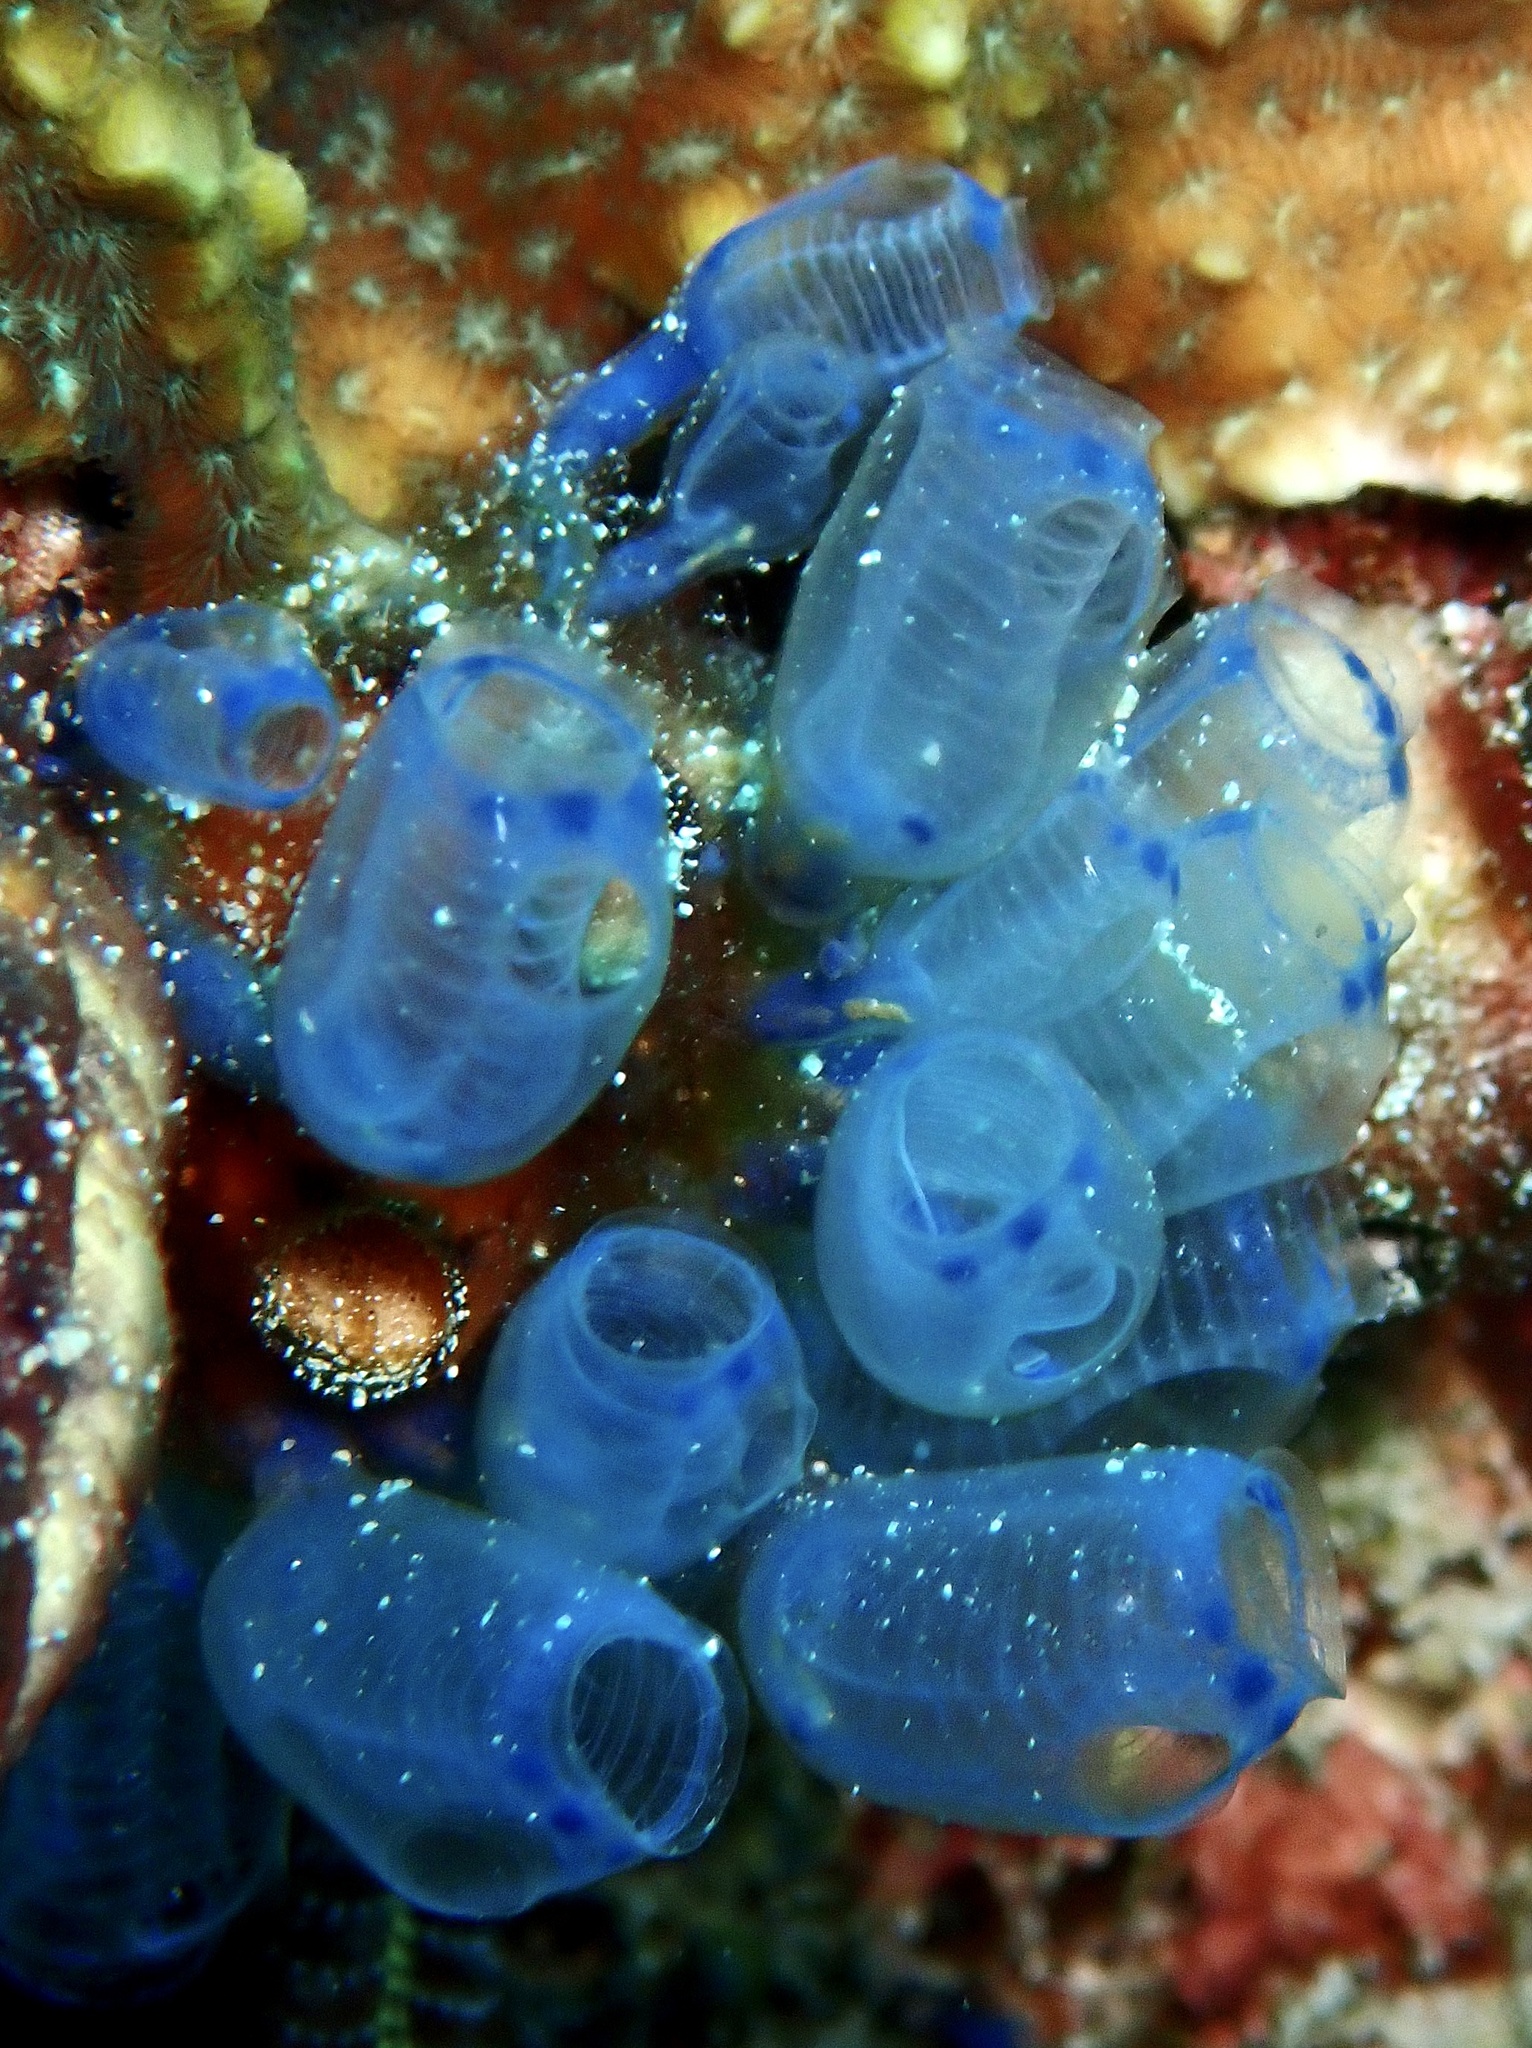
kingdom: Animalia
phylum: Chordata
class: Ascidiacea
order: Aplousobranchia
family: Clavelinidae
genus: Clavelina
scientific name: Clavelina moluccensis
